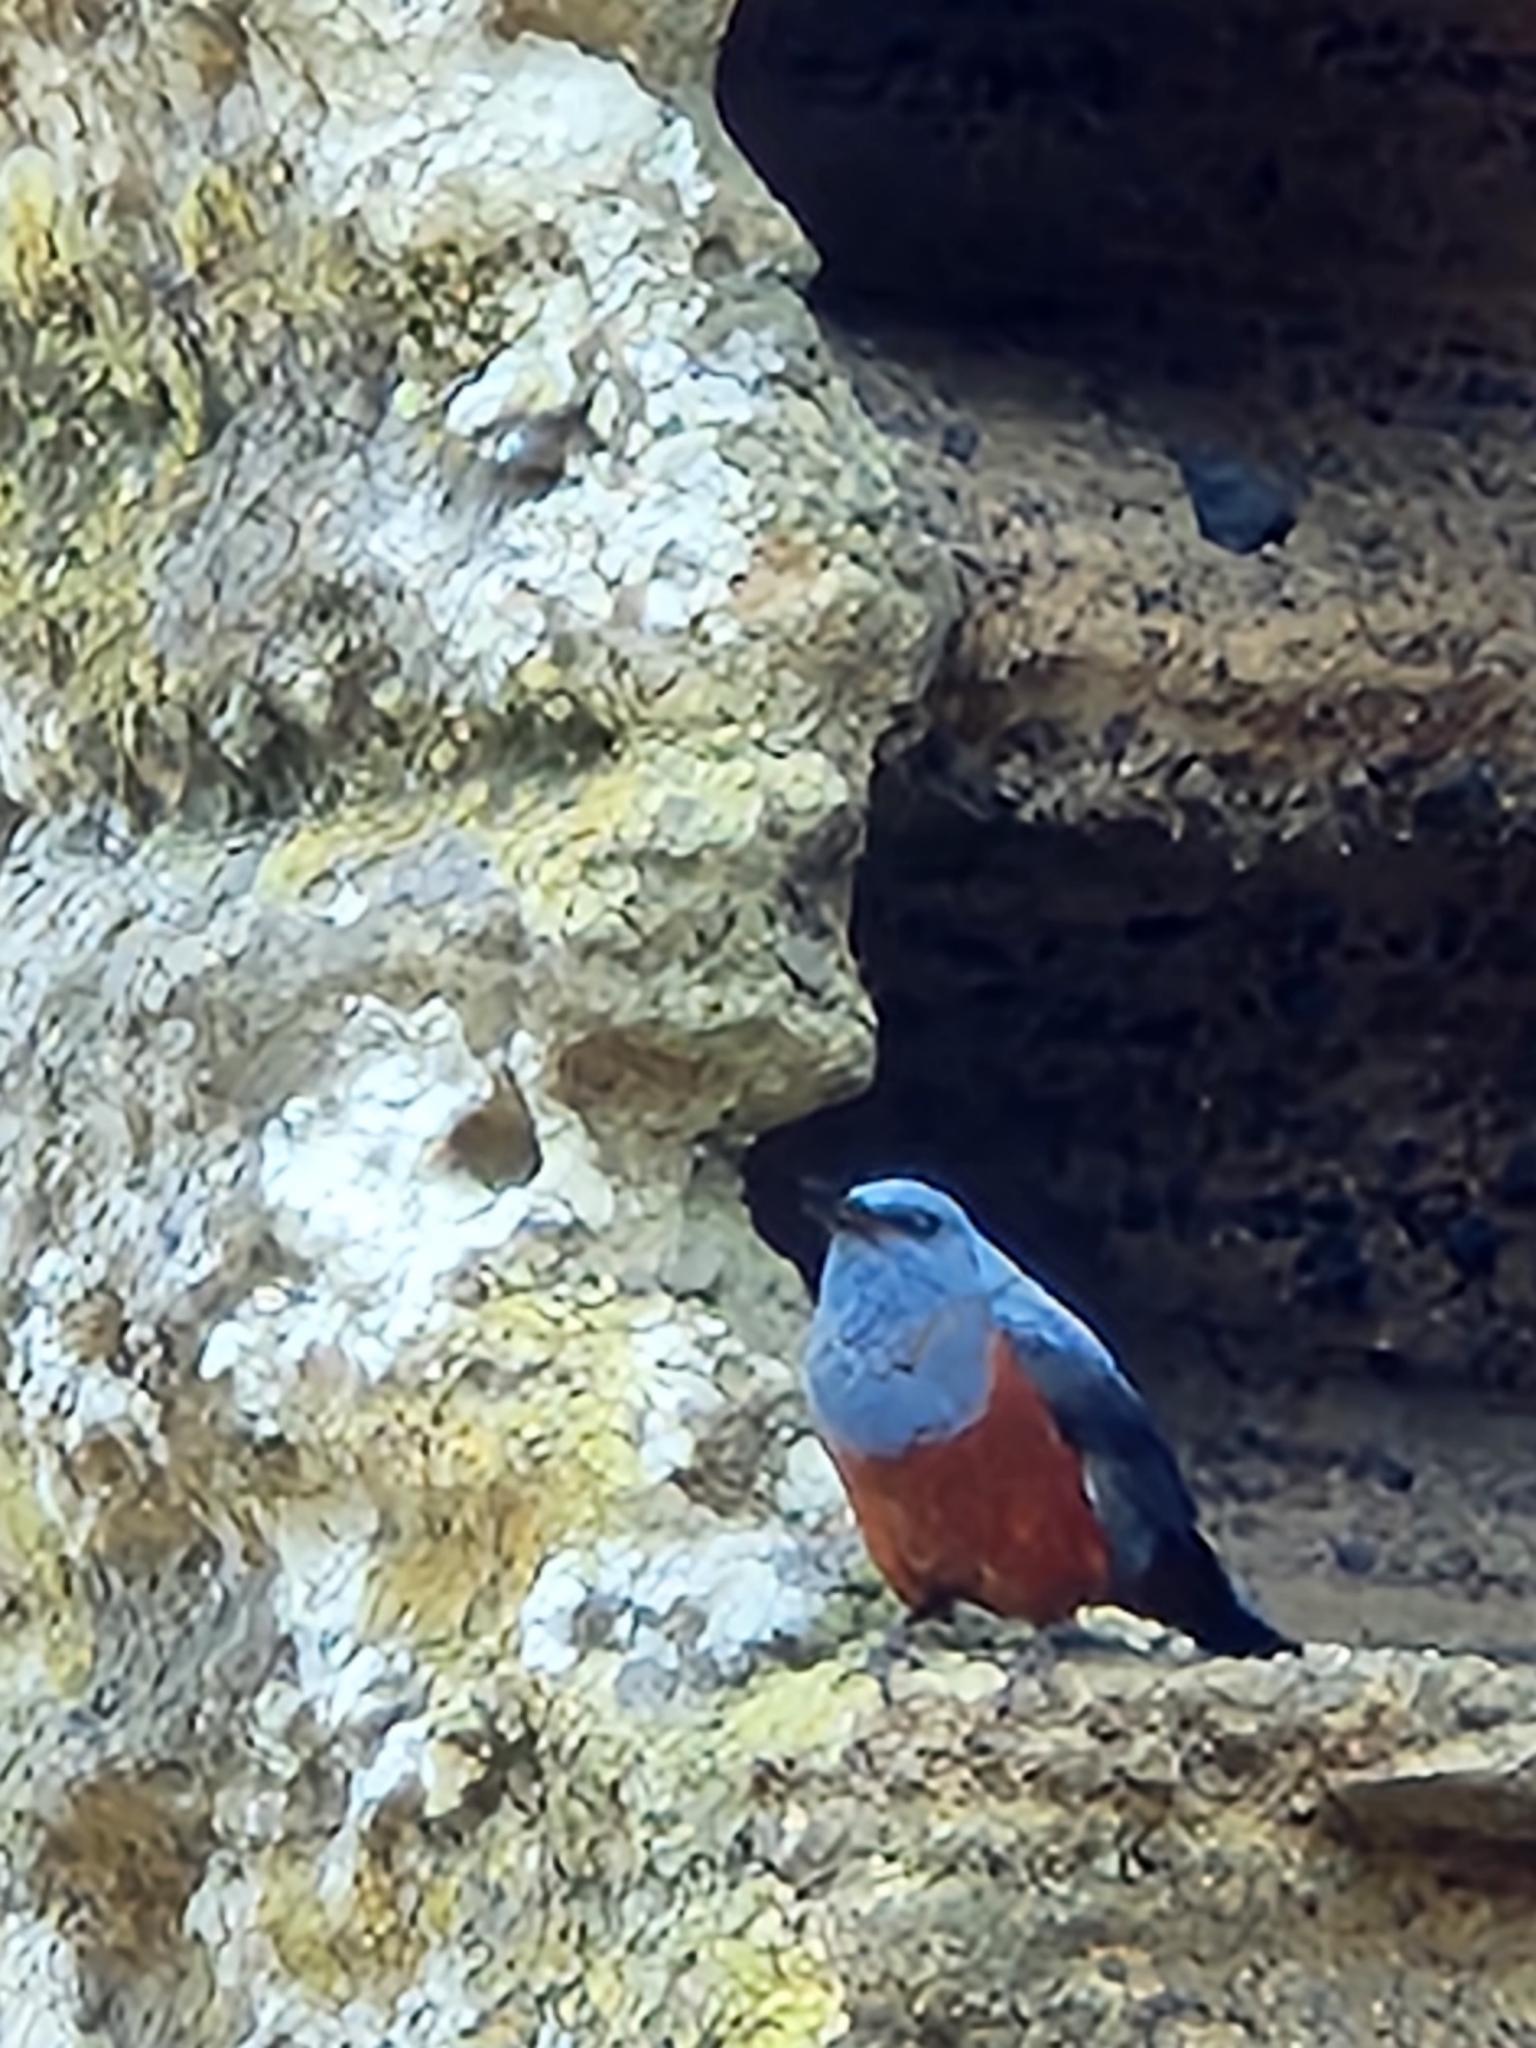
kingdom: Animalia
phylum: Chordata
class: Aves
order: Passeriformes
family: Muscicapidae
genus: Monticola
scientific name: Monticola solitarius
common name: Blue rock thrush
